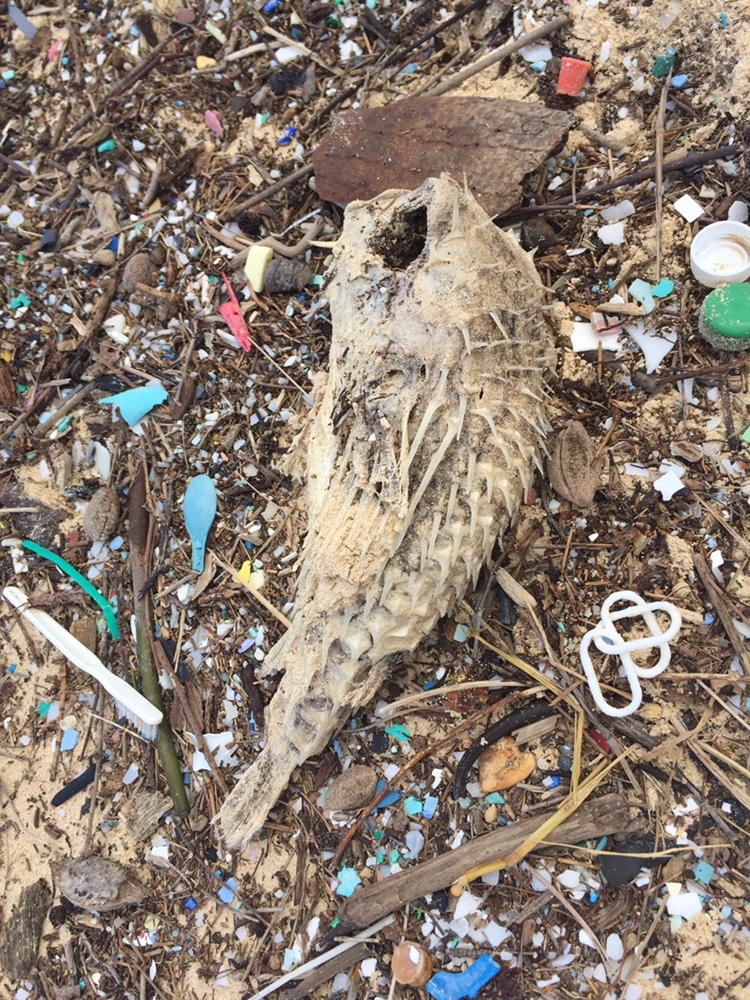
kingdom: Animalia
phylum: Chordata
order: Tetraodontiformes
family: Diodontidae
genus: Diodon
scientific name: Diodon holocanthus
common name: Balloonfish
